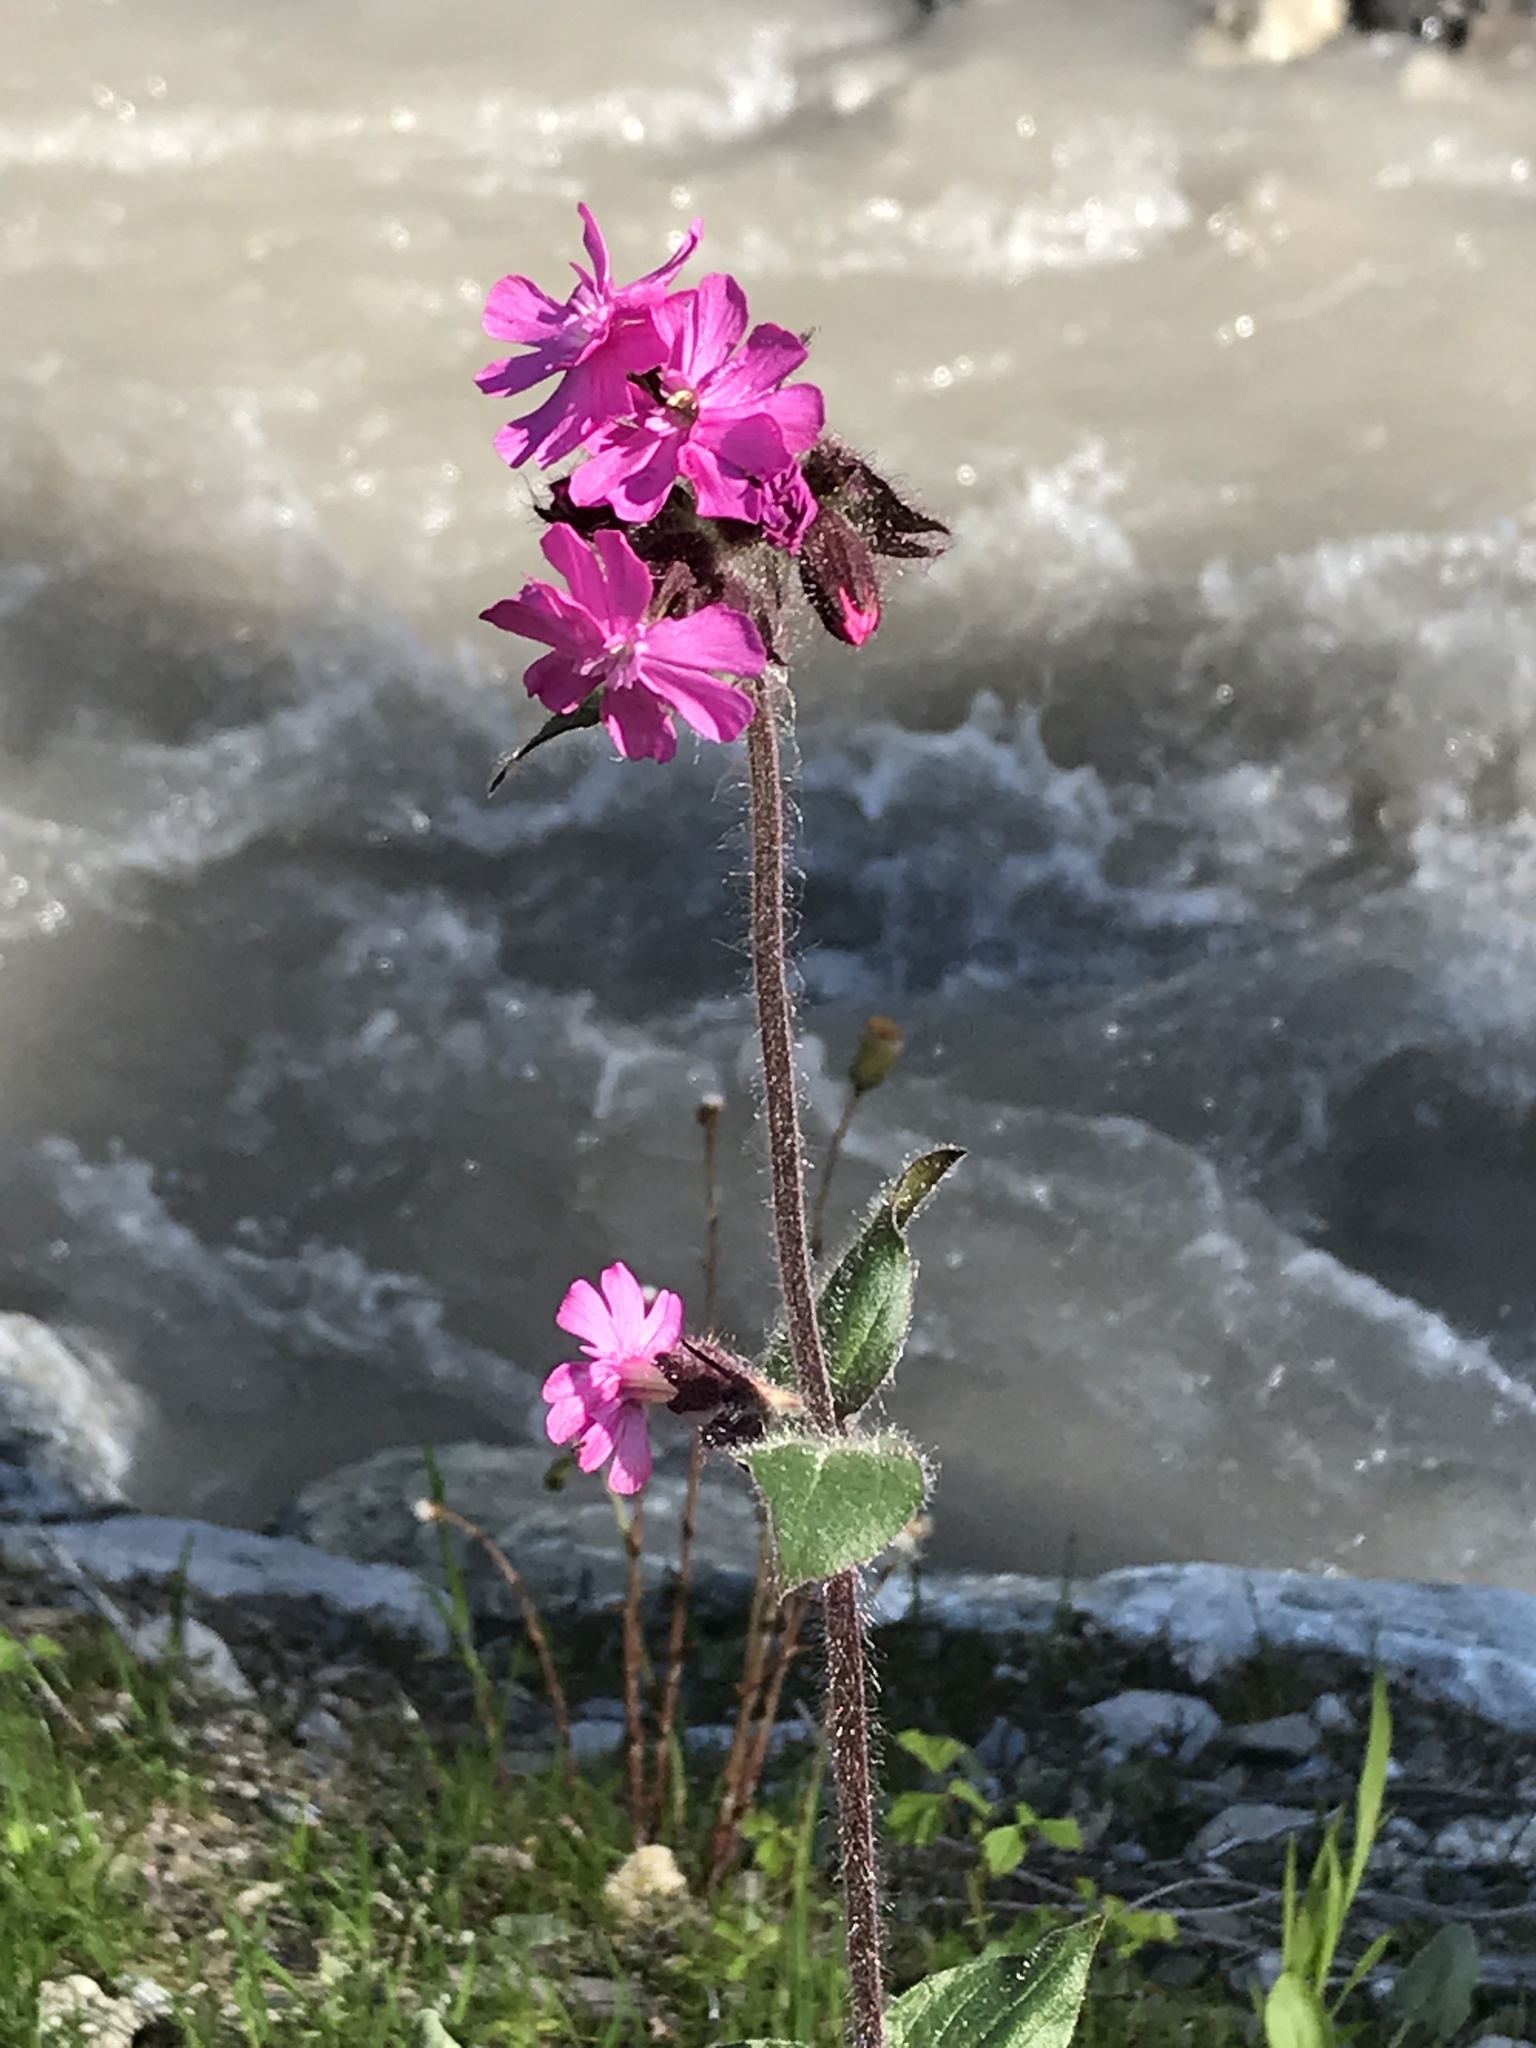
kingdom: Plantae
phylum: Tracheophyta
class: Magnoliopsida
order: Caryophyllales
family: Caryophyllaceae
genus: Silene
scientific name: Silene dioica
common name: Red campion
